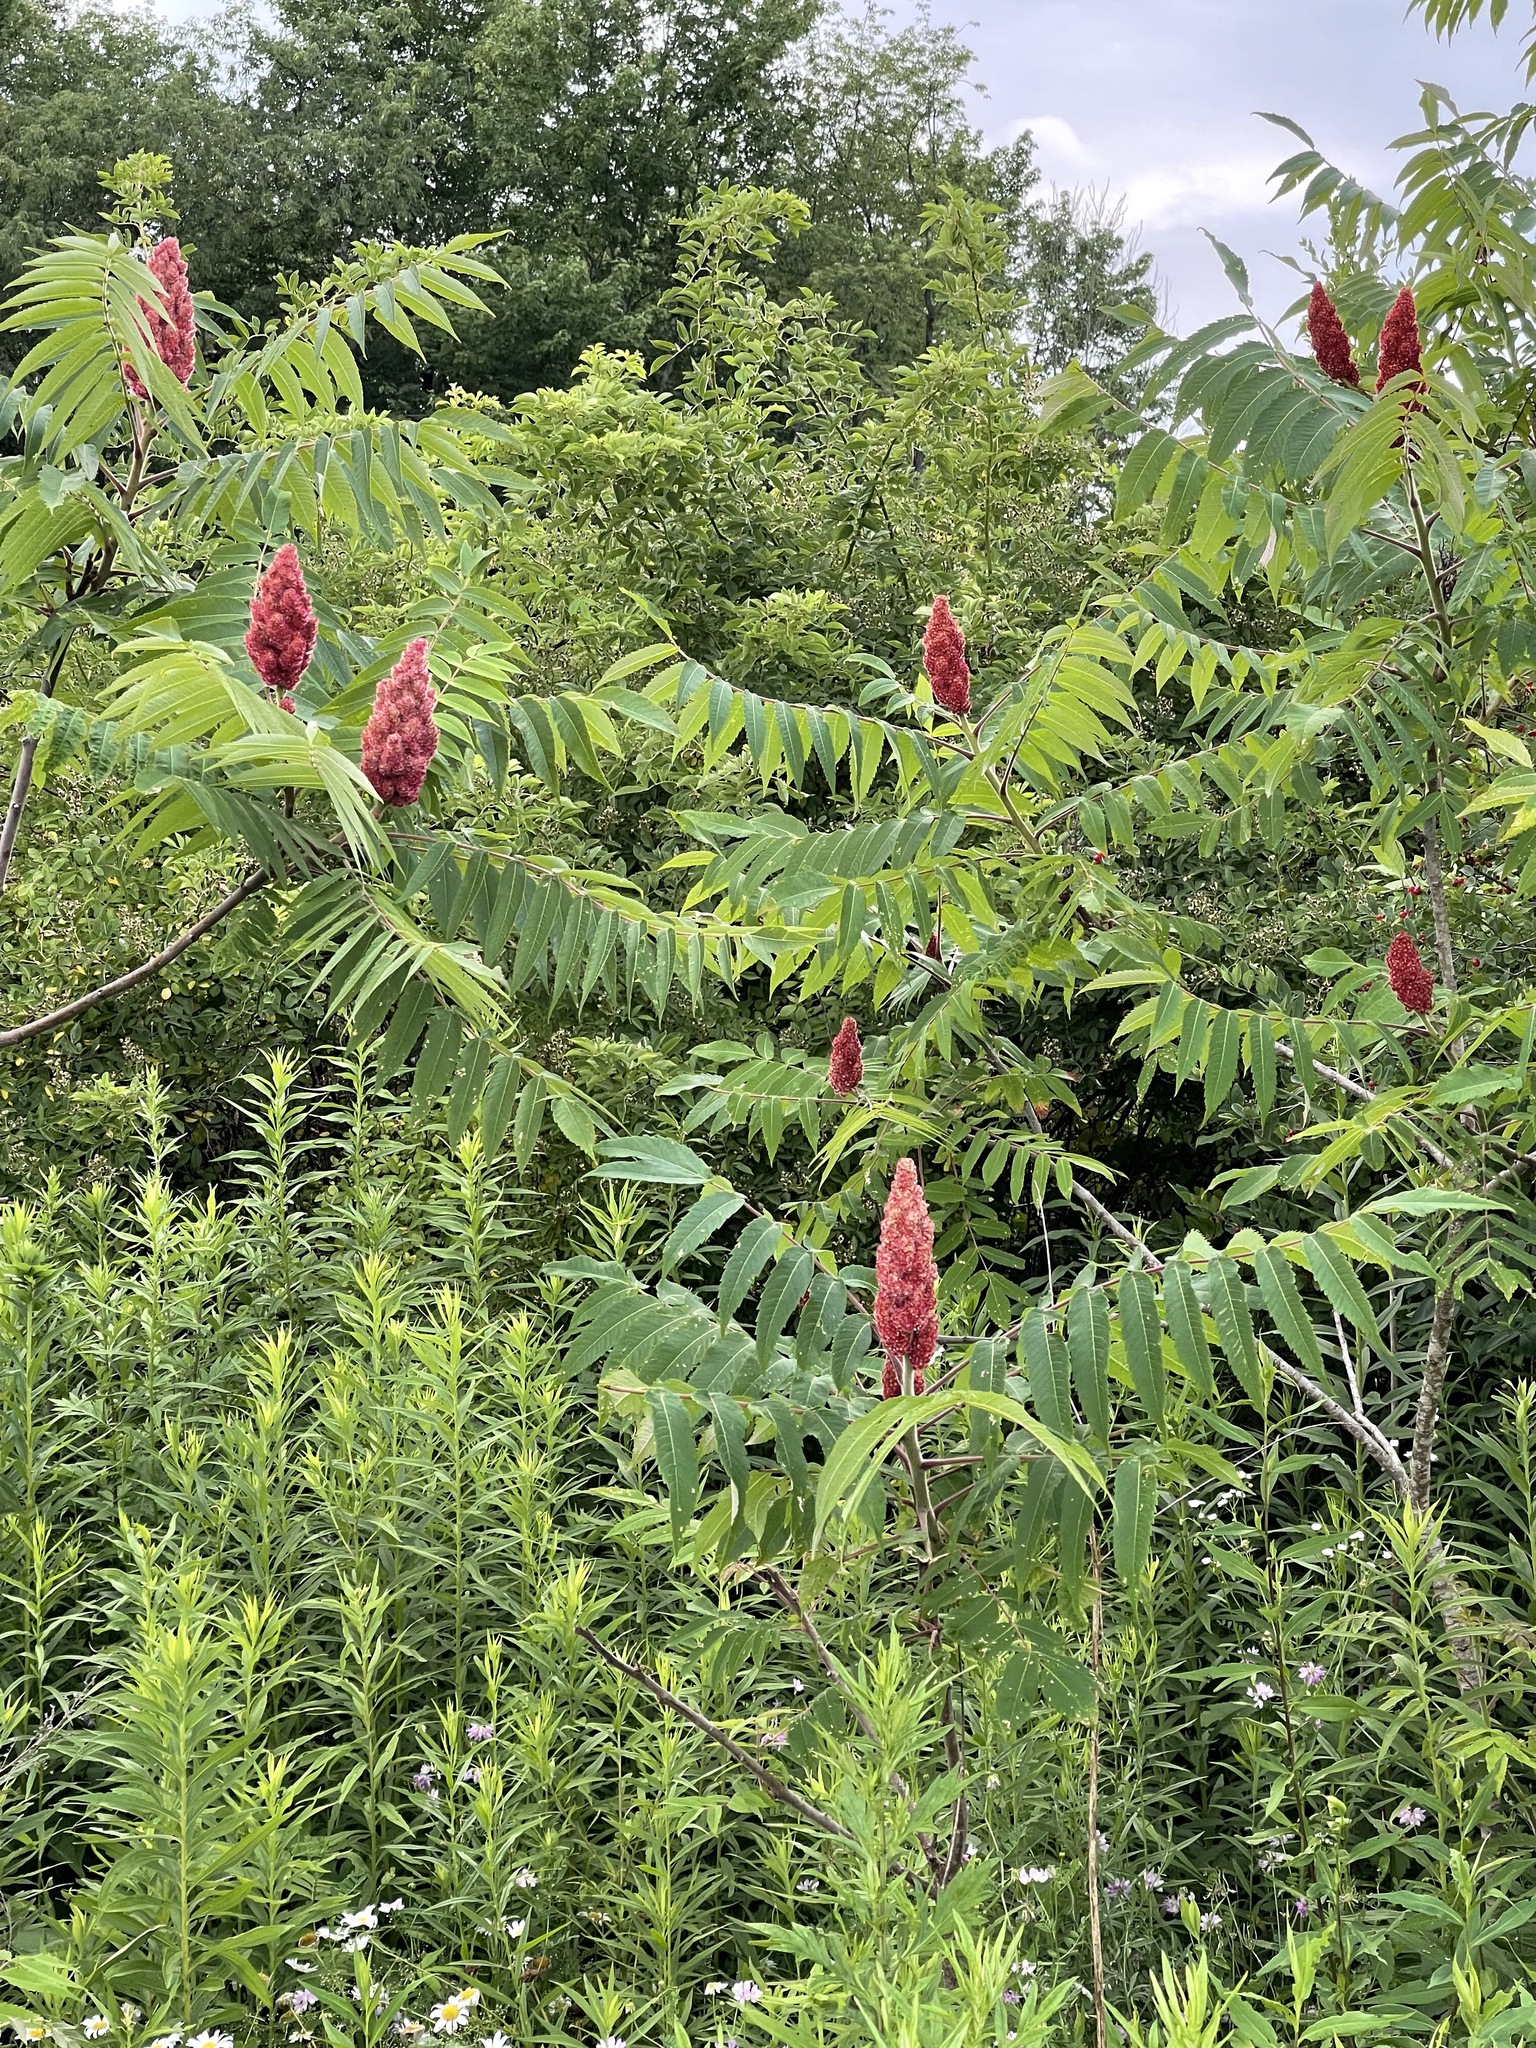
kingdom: Plantae
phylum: Tracheophyta
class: Magnoliopsida
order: Sapindales
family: Anacardiaceae
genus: Rhus
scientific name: Rhus typhina
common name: Staghorn sumac
